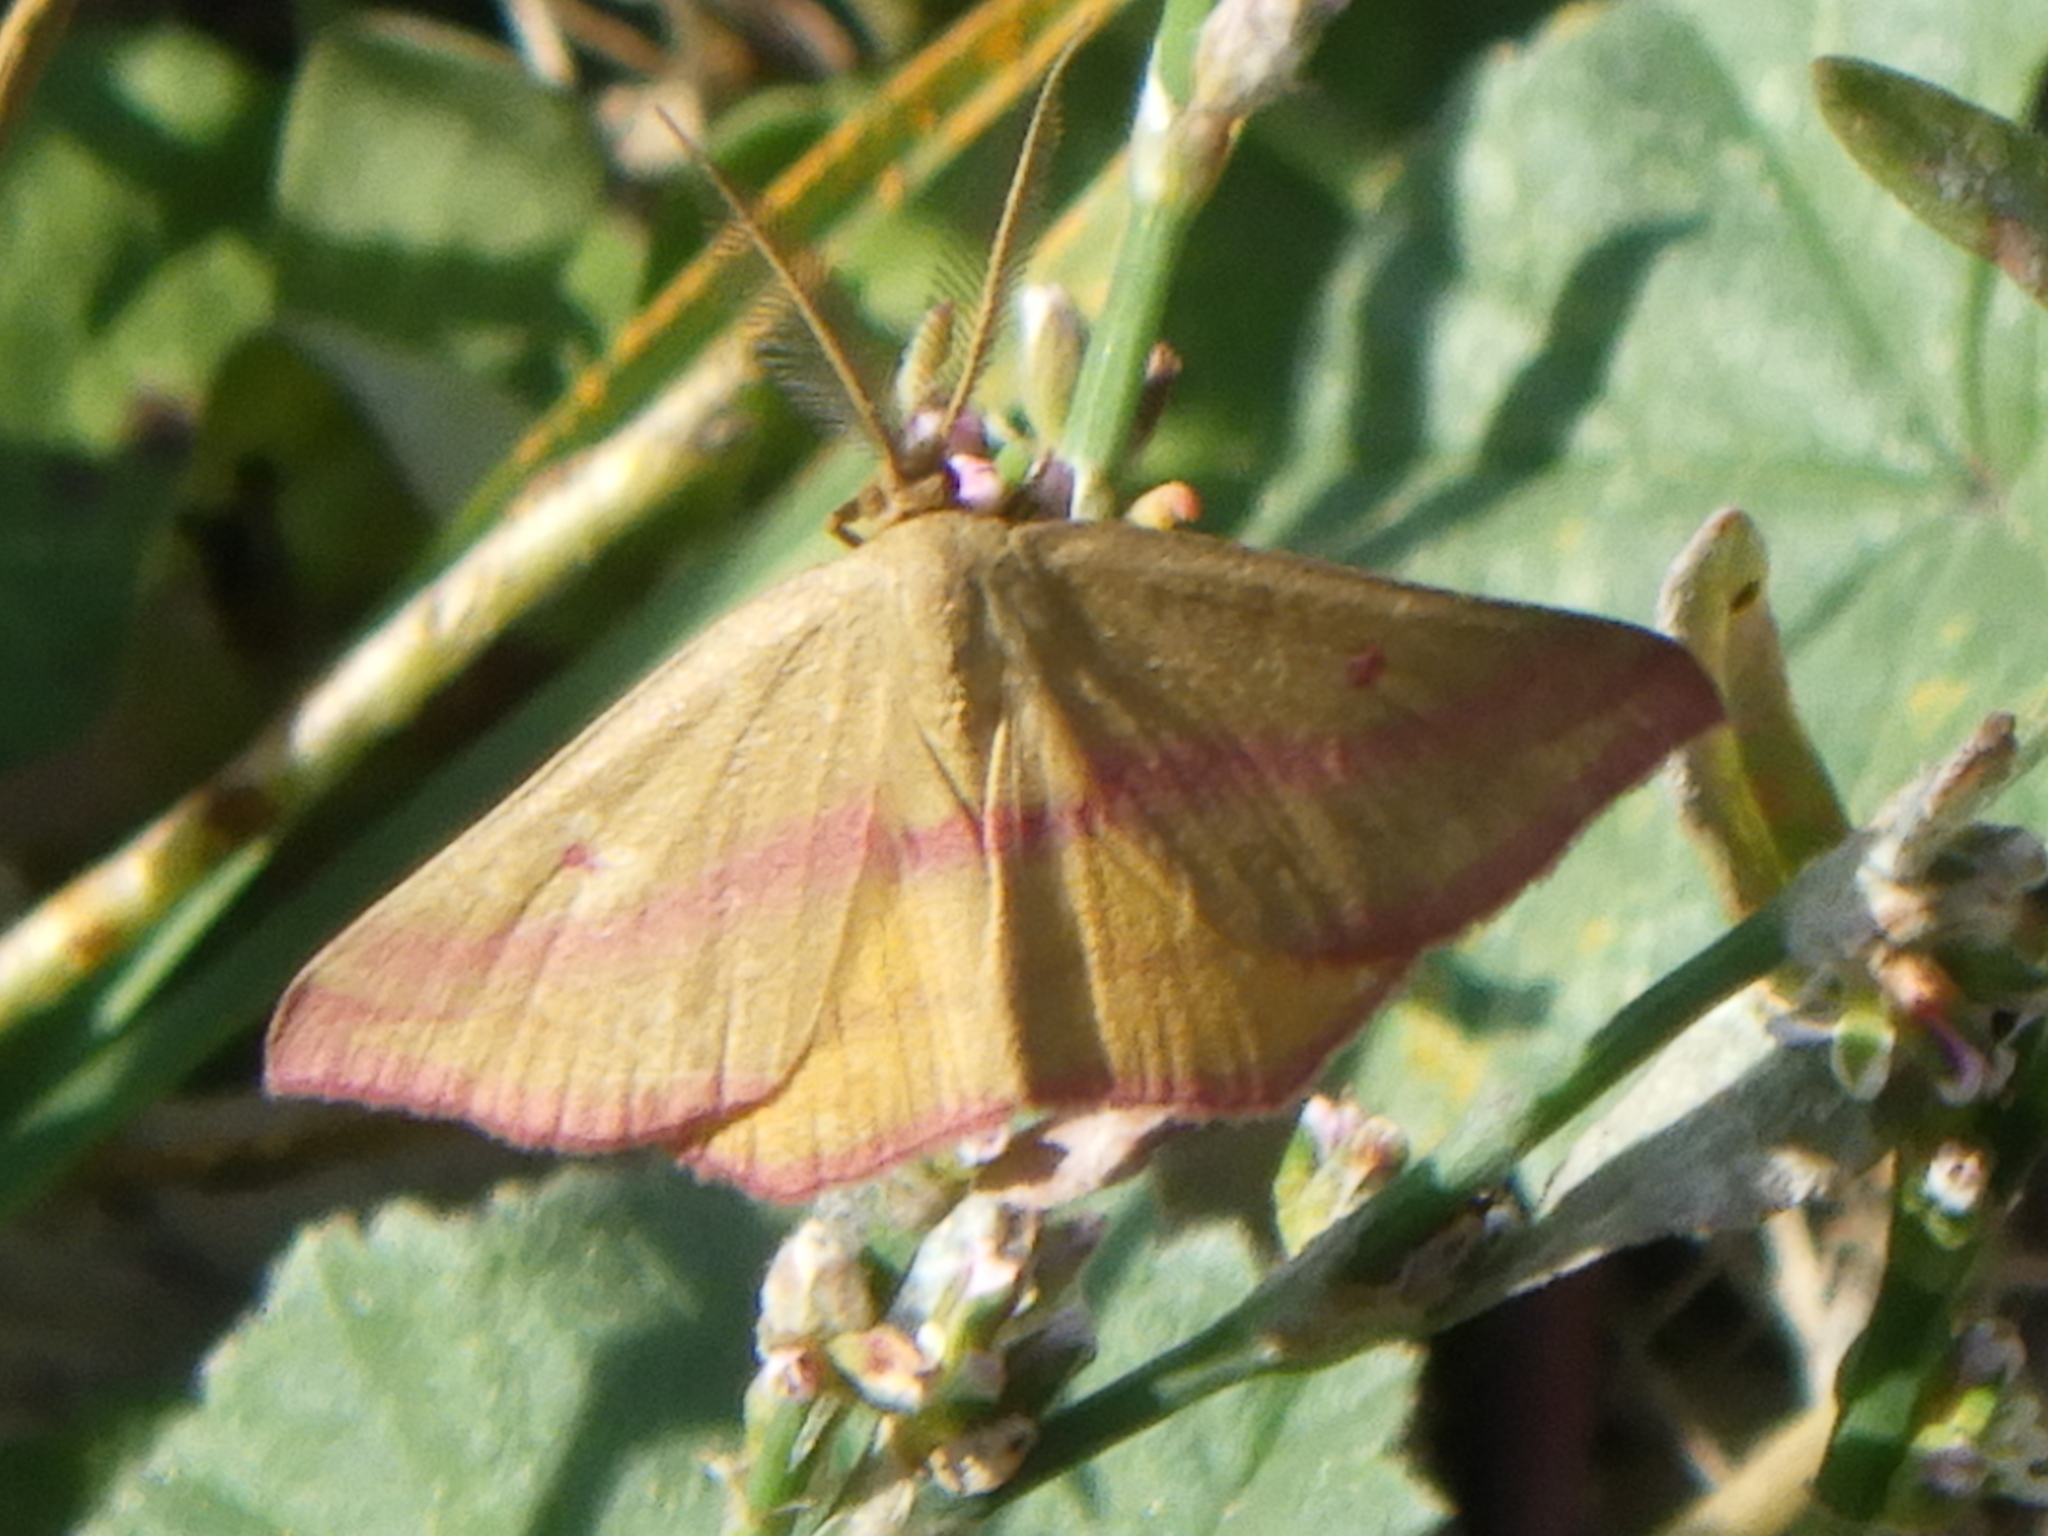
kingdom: Animalia
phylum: Arthropoda
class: Insecta
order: Lepidoptera
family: Geometridae
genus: Haematopis
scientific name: Haematopis grataria
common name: Chickweed geometer
